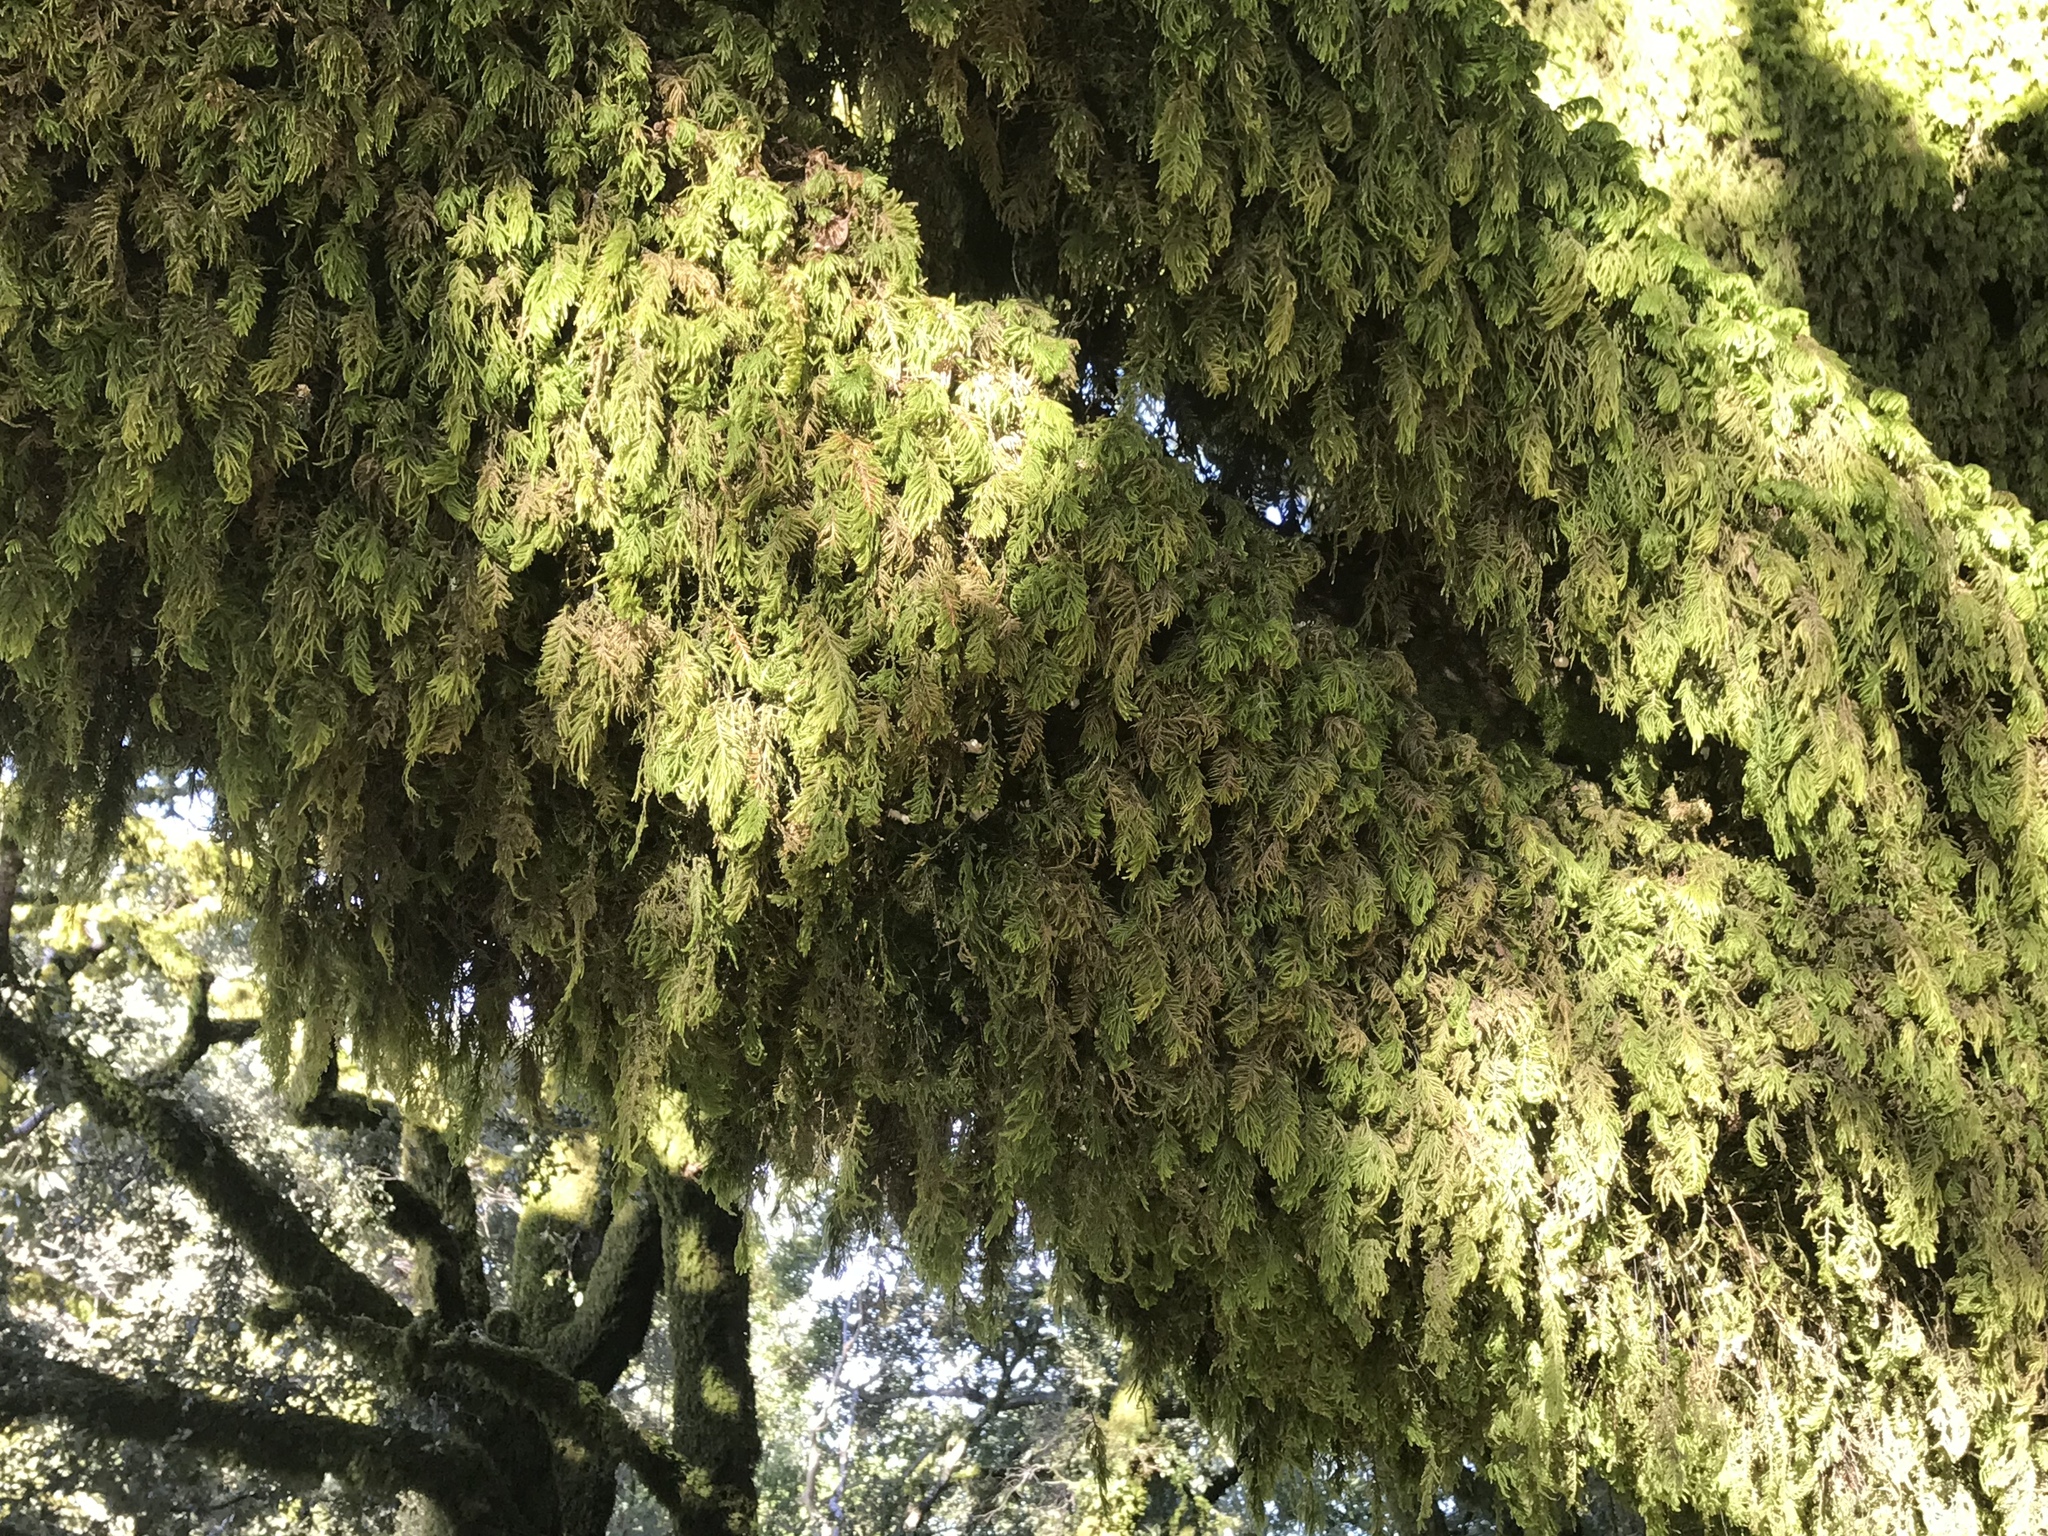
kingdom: Plantae
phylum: Bryophyta
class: Bryopsida
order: Hypnales
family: Cryphaeaceae
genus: Dendroalsia
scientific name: Dendroalsia abietina
